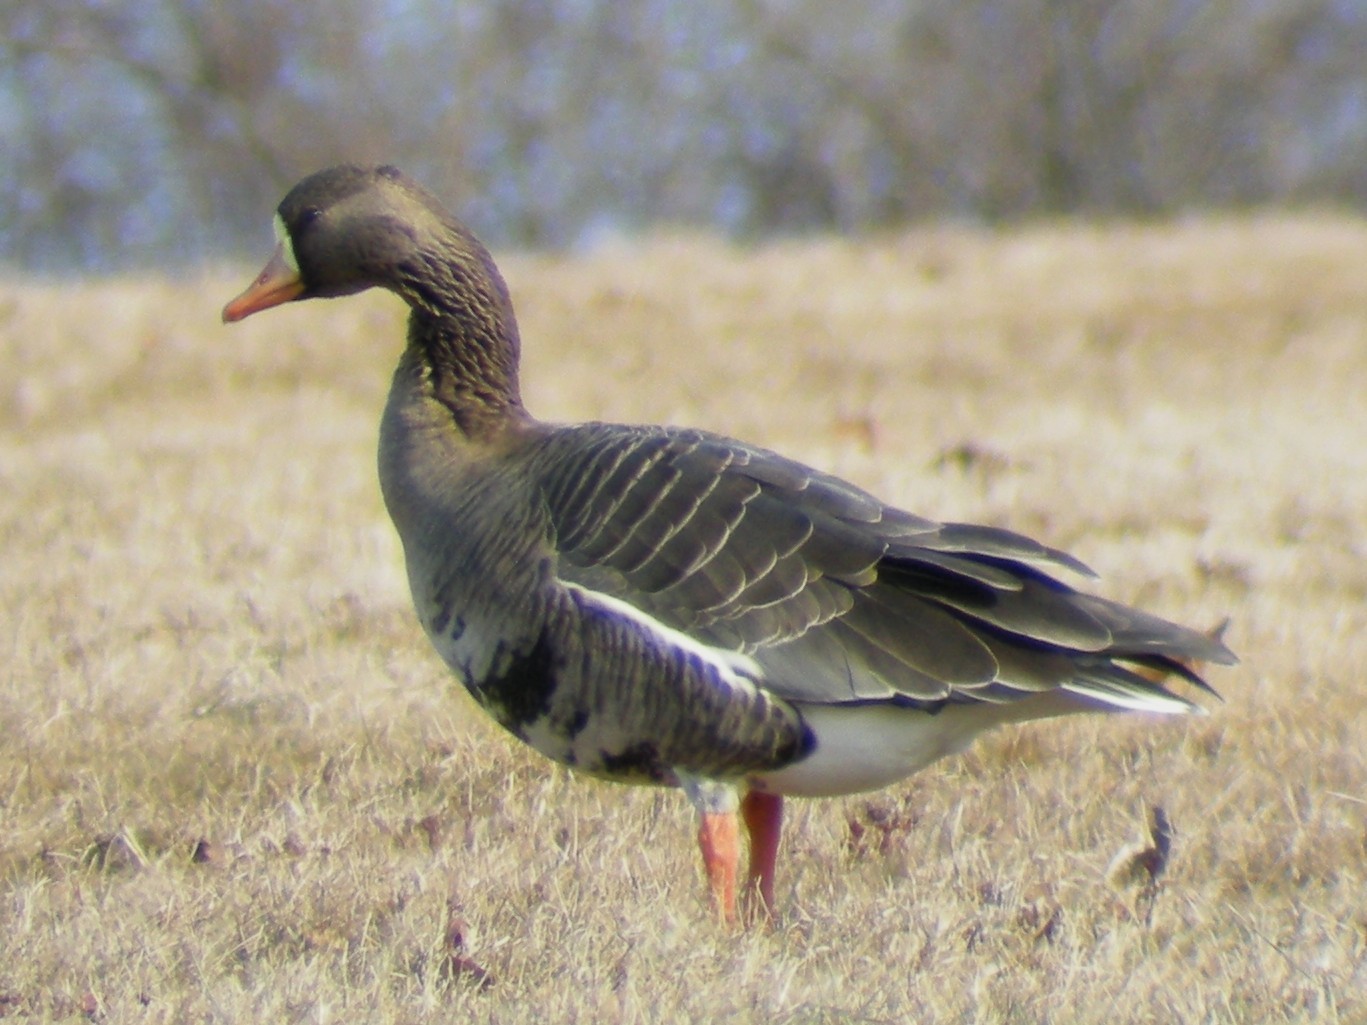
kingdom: Animalia
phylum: Chordata
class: Aves
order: Anseriformes
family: Anatidae
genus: Anser
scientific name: Anser albifrons
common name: Greater white-fronted goose
